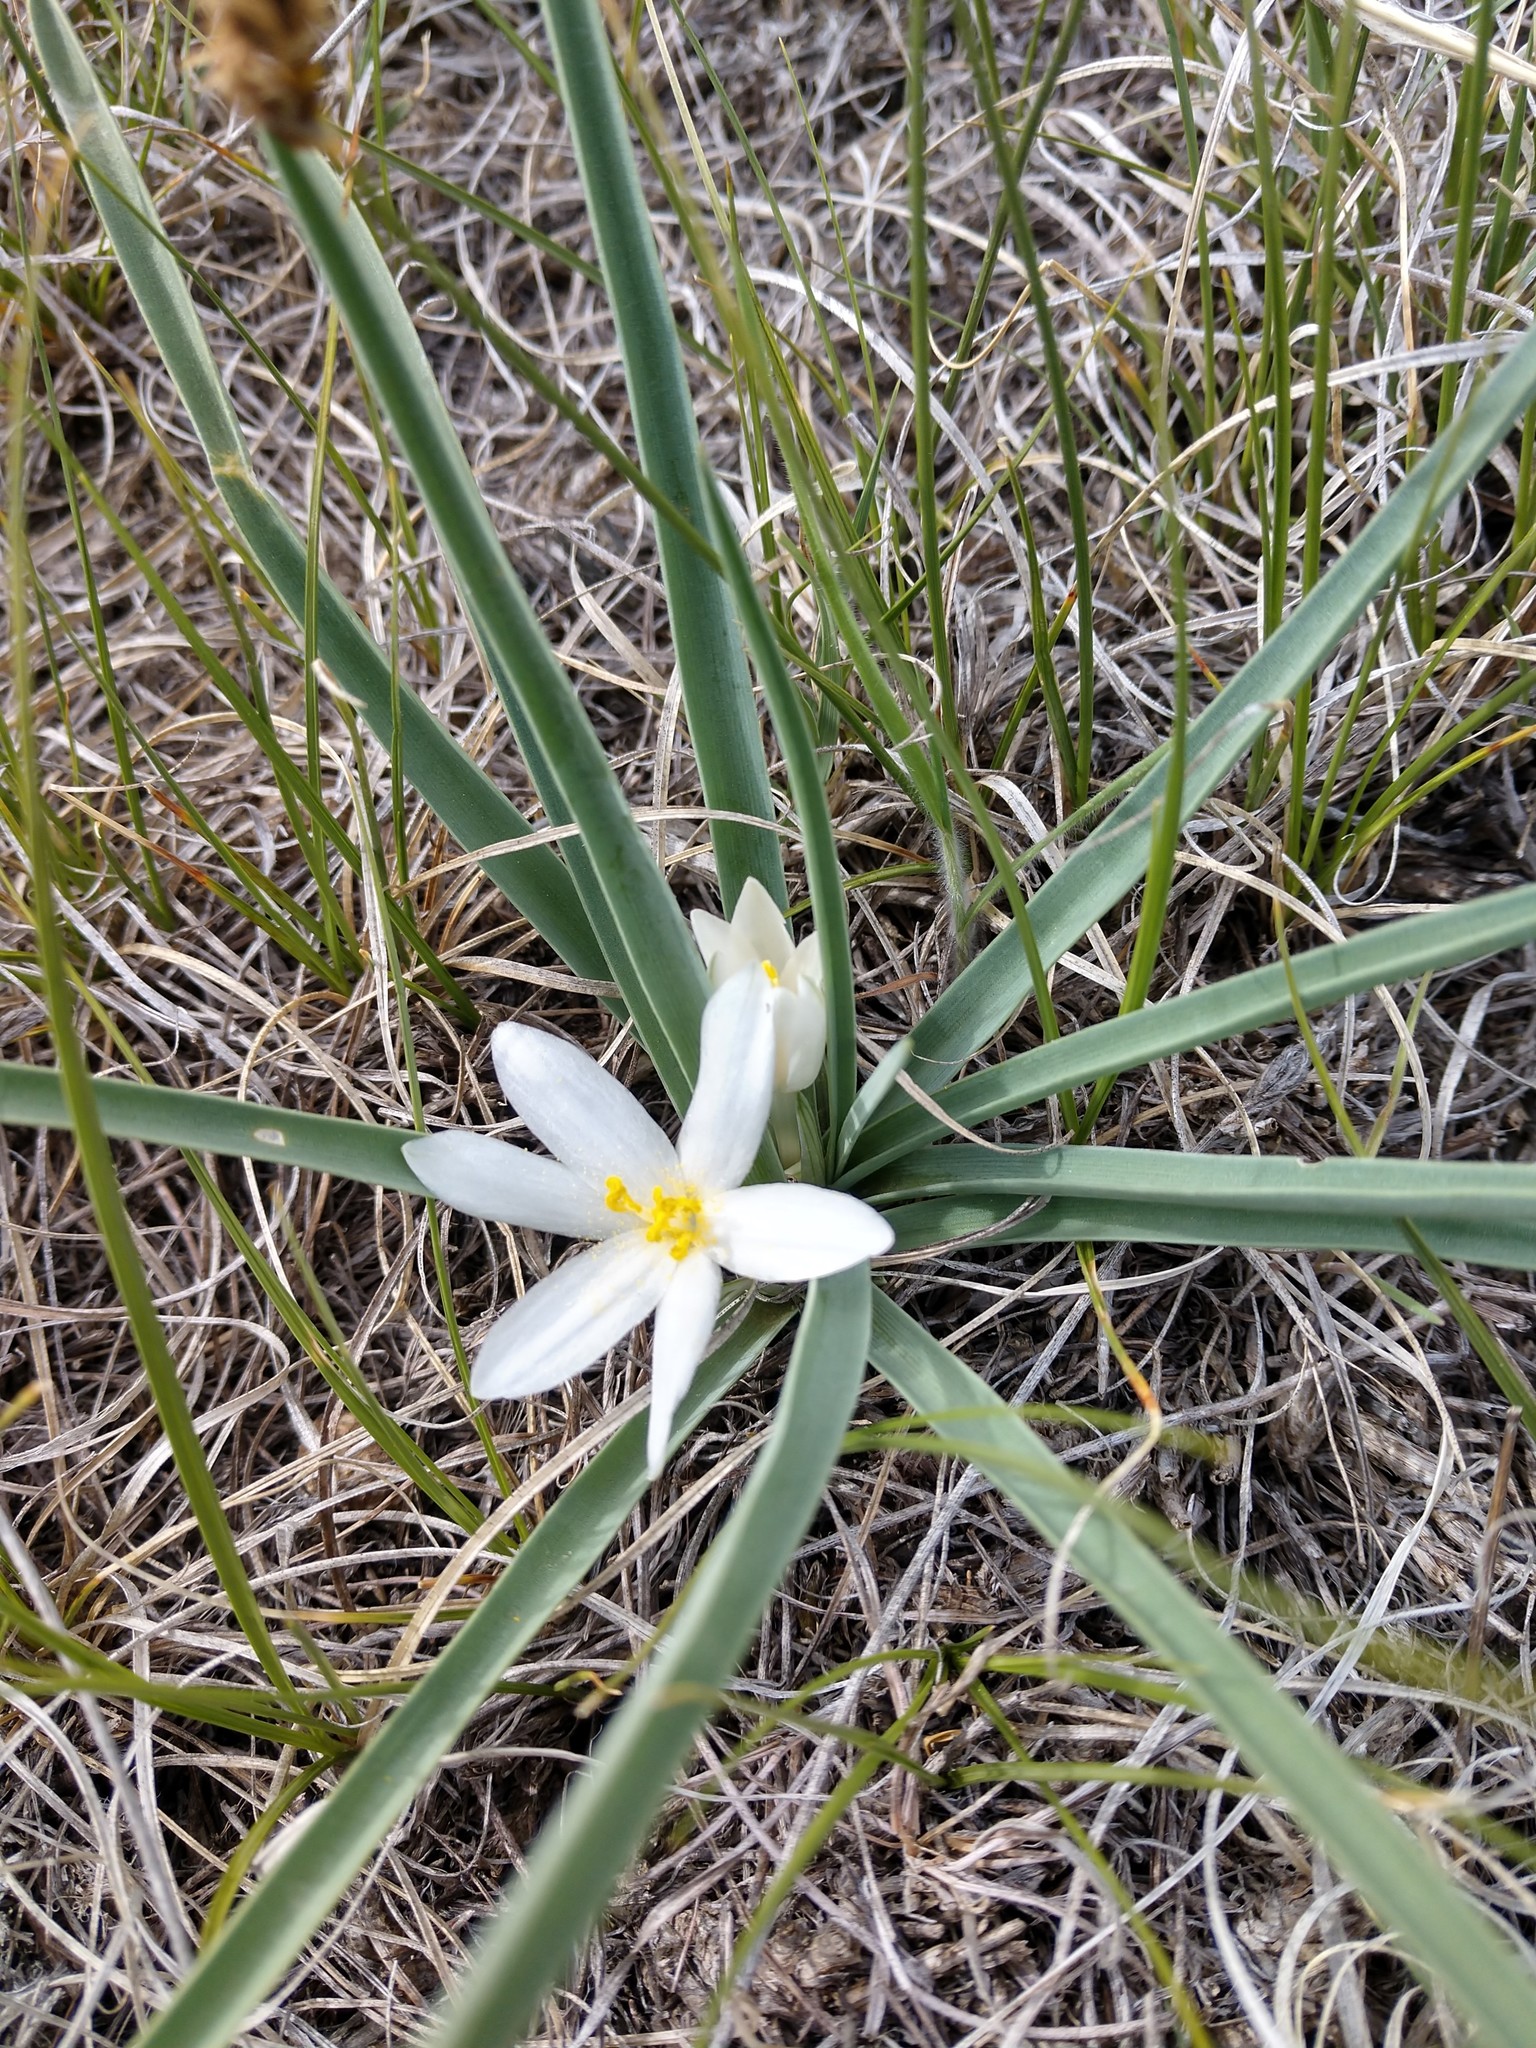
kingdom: Plantae
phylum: Tracheophyta
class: Liliopsida
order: Asparagales
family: Asparagaceae
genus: Leucocrinum
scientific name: Leucocrinum montanum
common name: Mountain-lily
